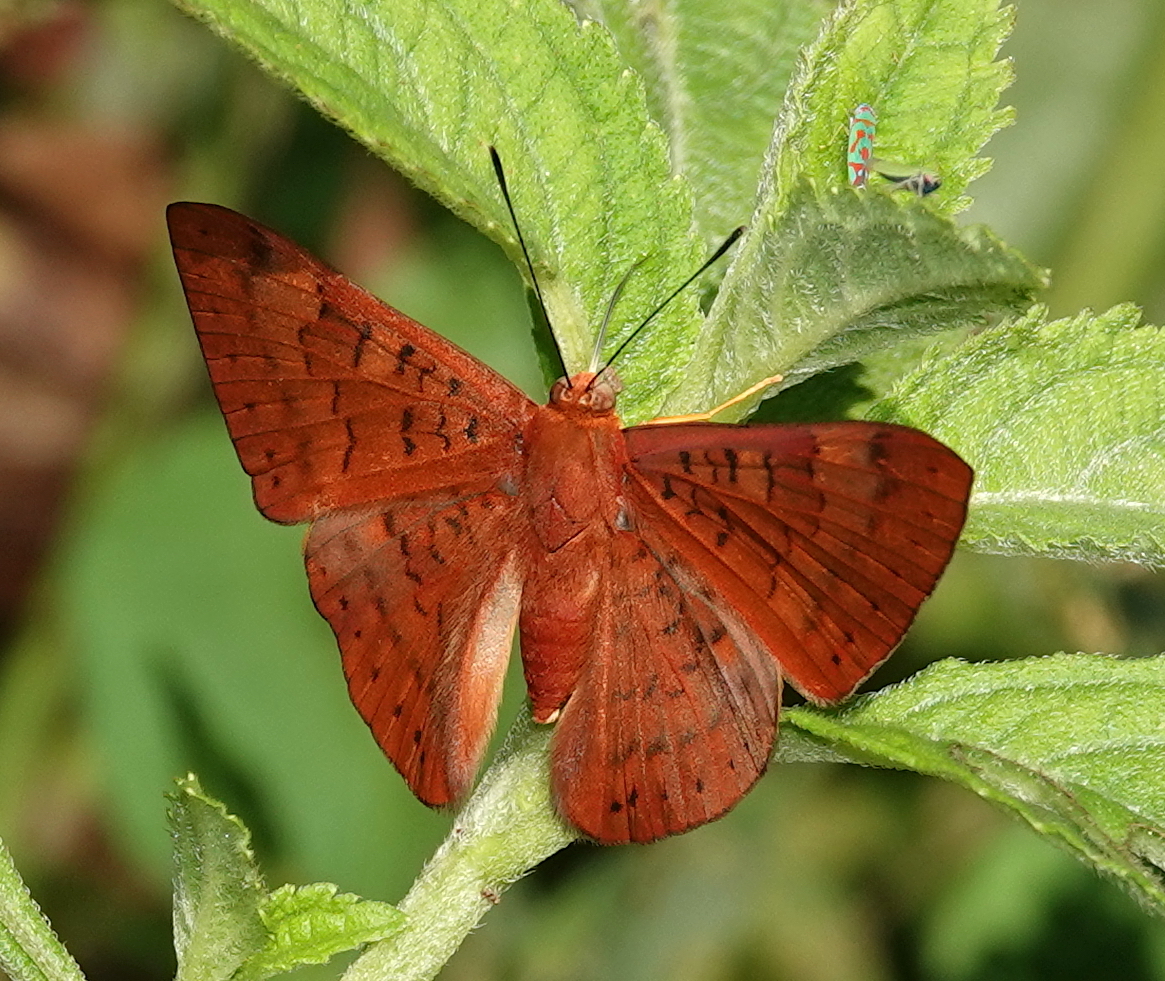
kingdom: Animalia
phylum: Arthropoda
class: Insecta
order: Lepidoptera
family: Lycaenidae
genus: Emesis
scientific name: Emesis mandana
